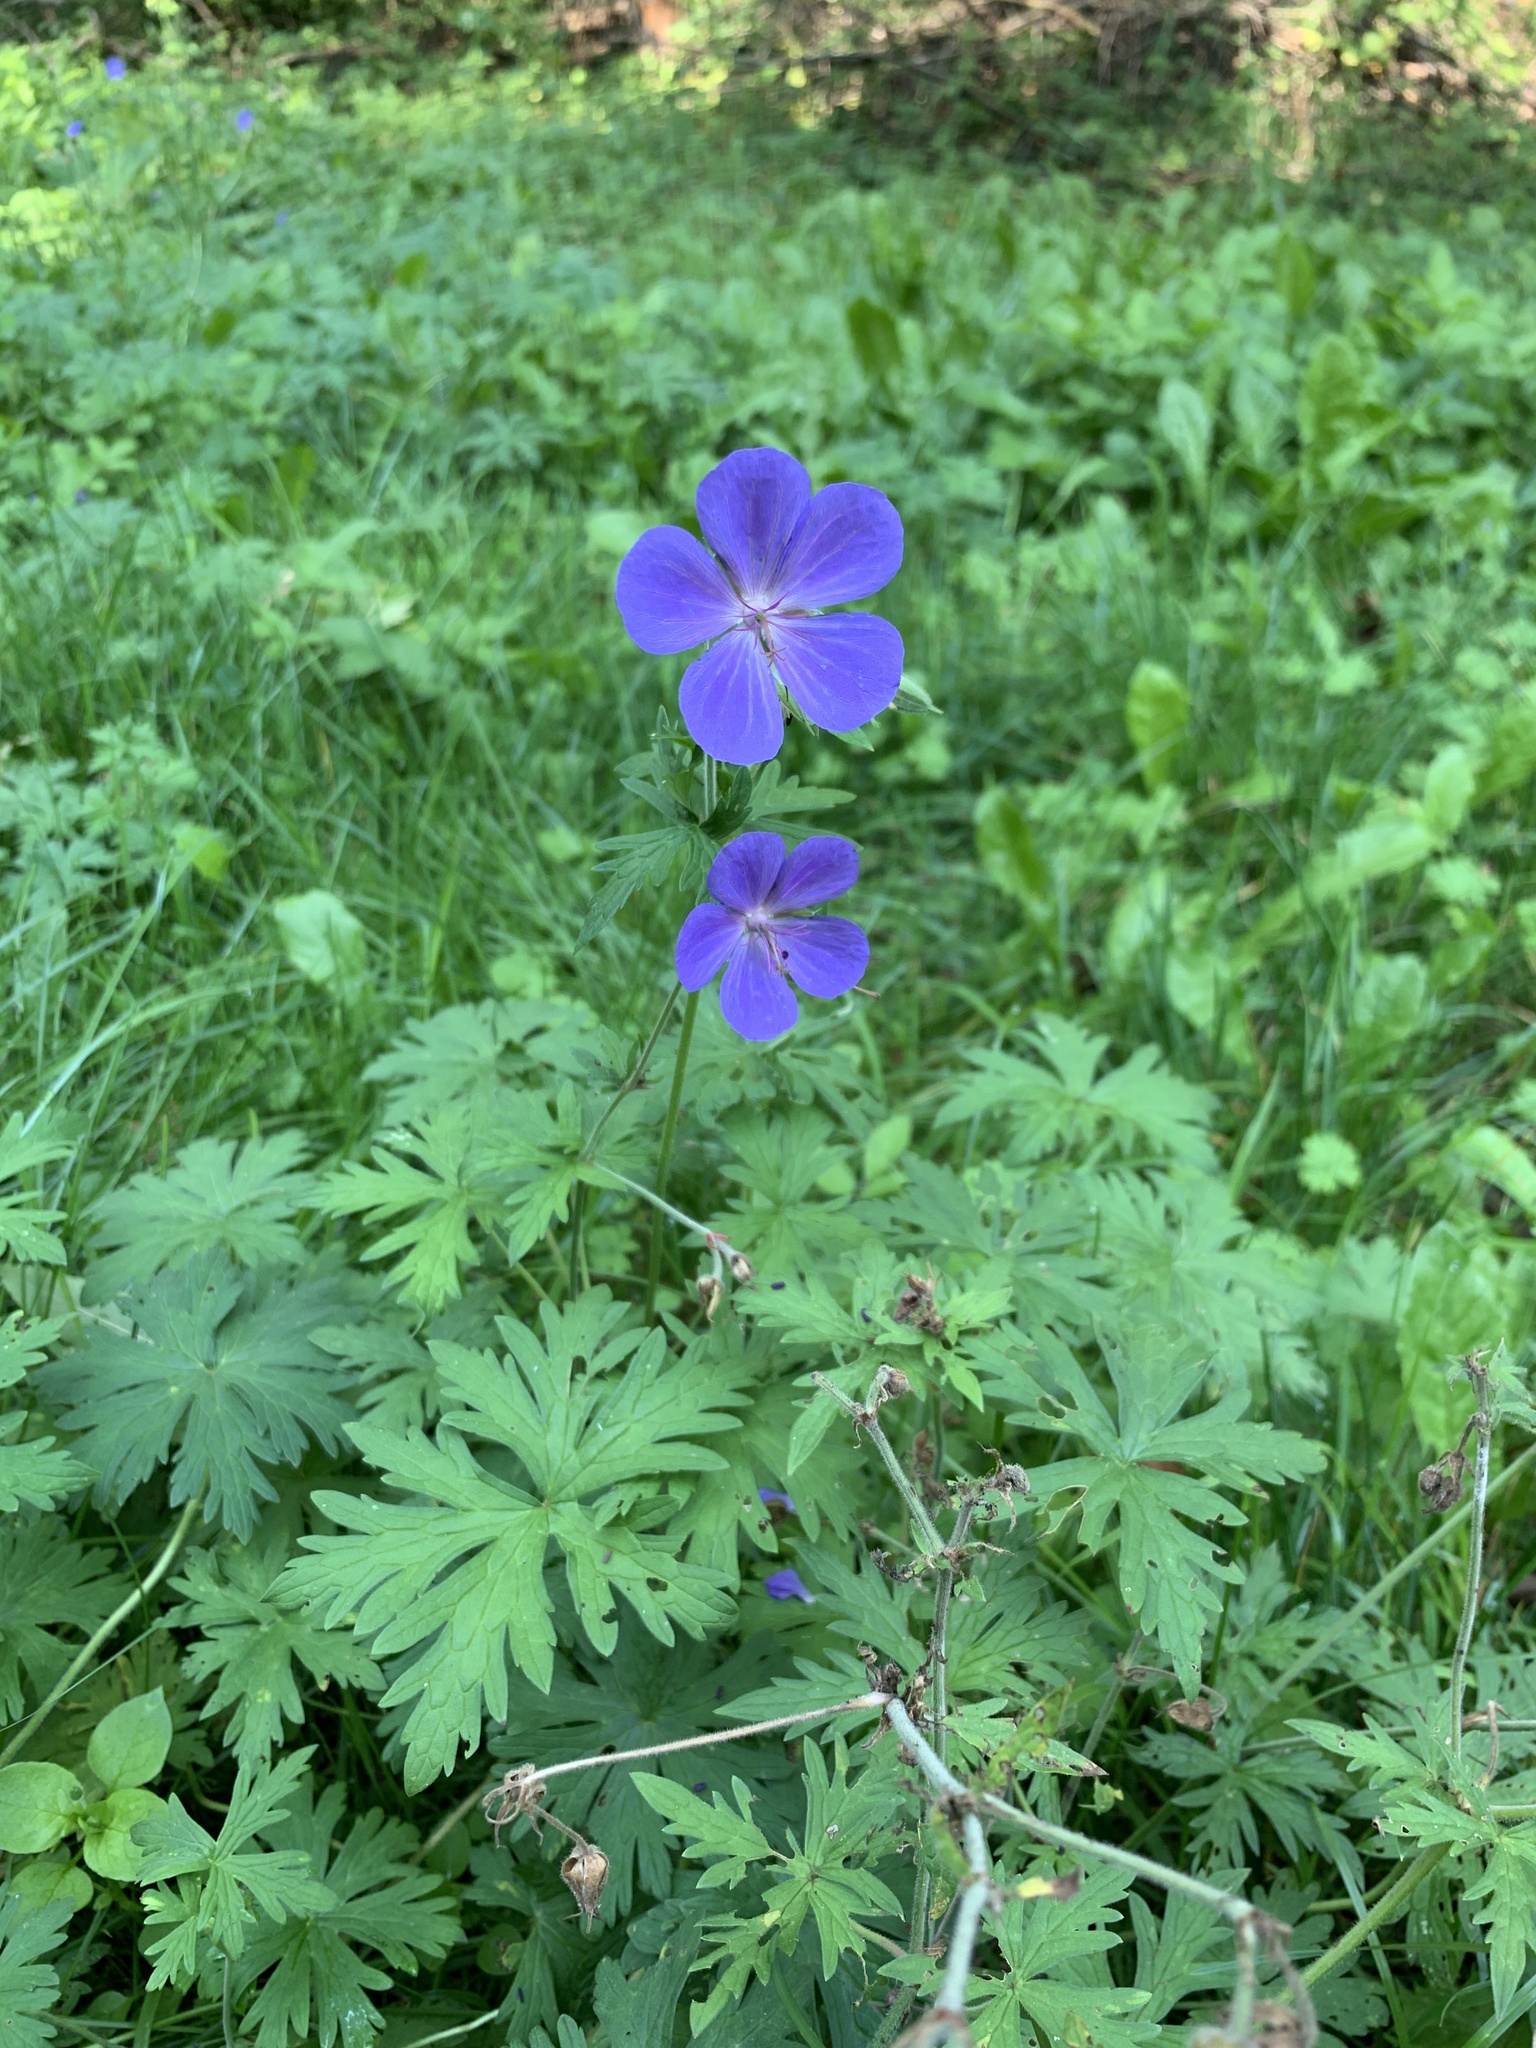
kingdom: Plantae
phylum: Tracheophyta
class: Magnoliopsida
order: Geraniales
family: Geraniaceae
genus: Geranium
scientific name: Geranium pratense
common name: Meadow crane's-bill
